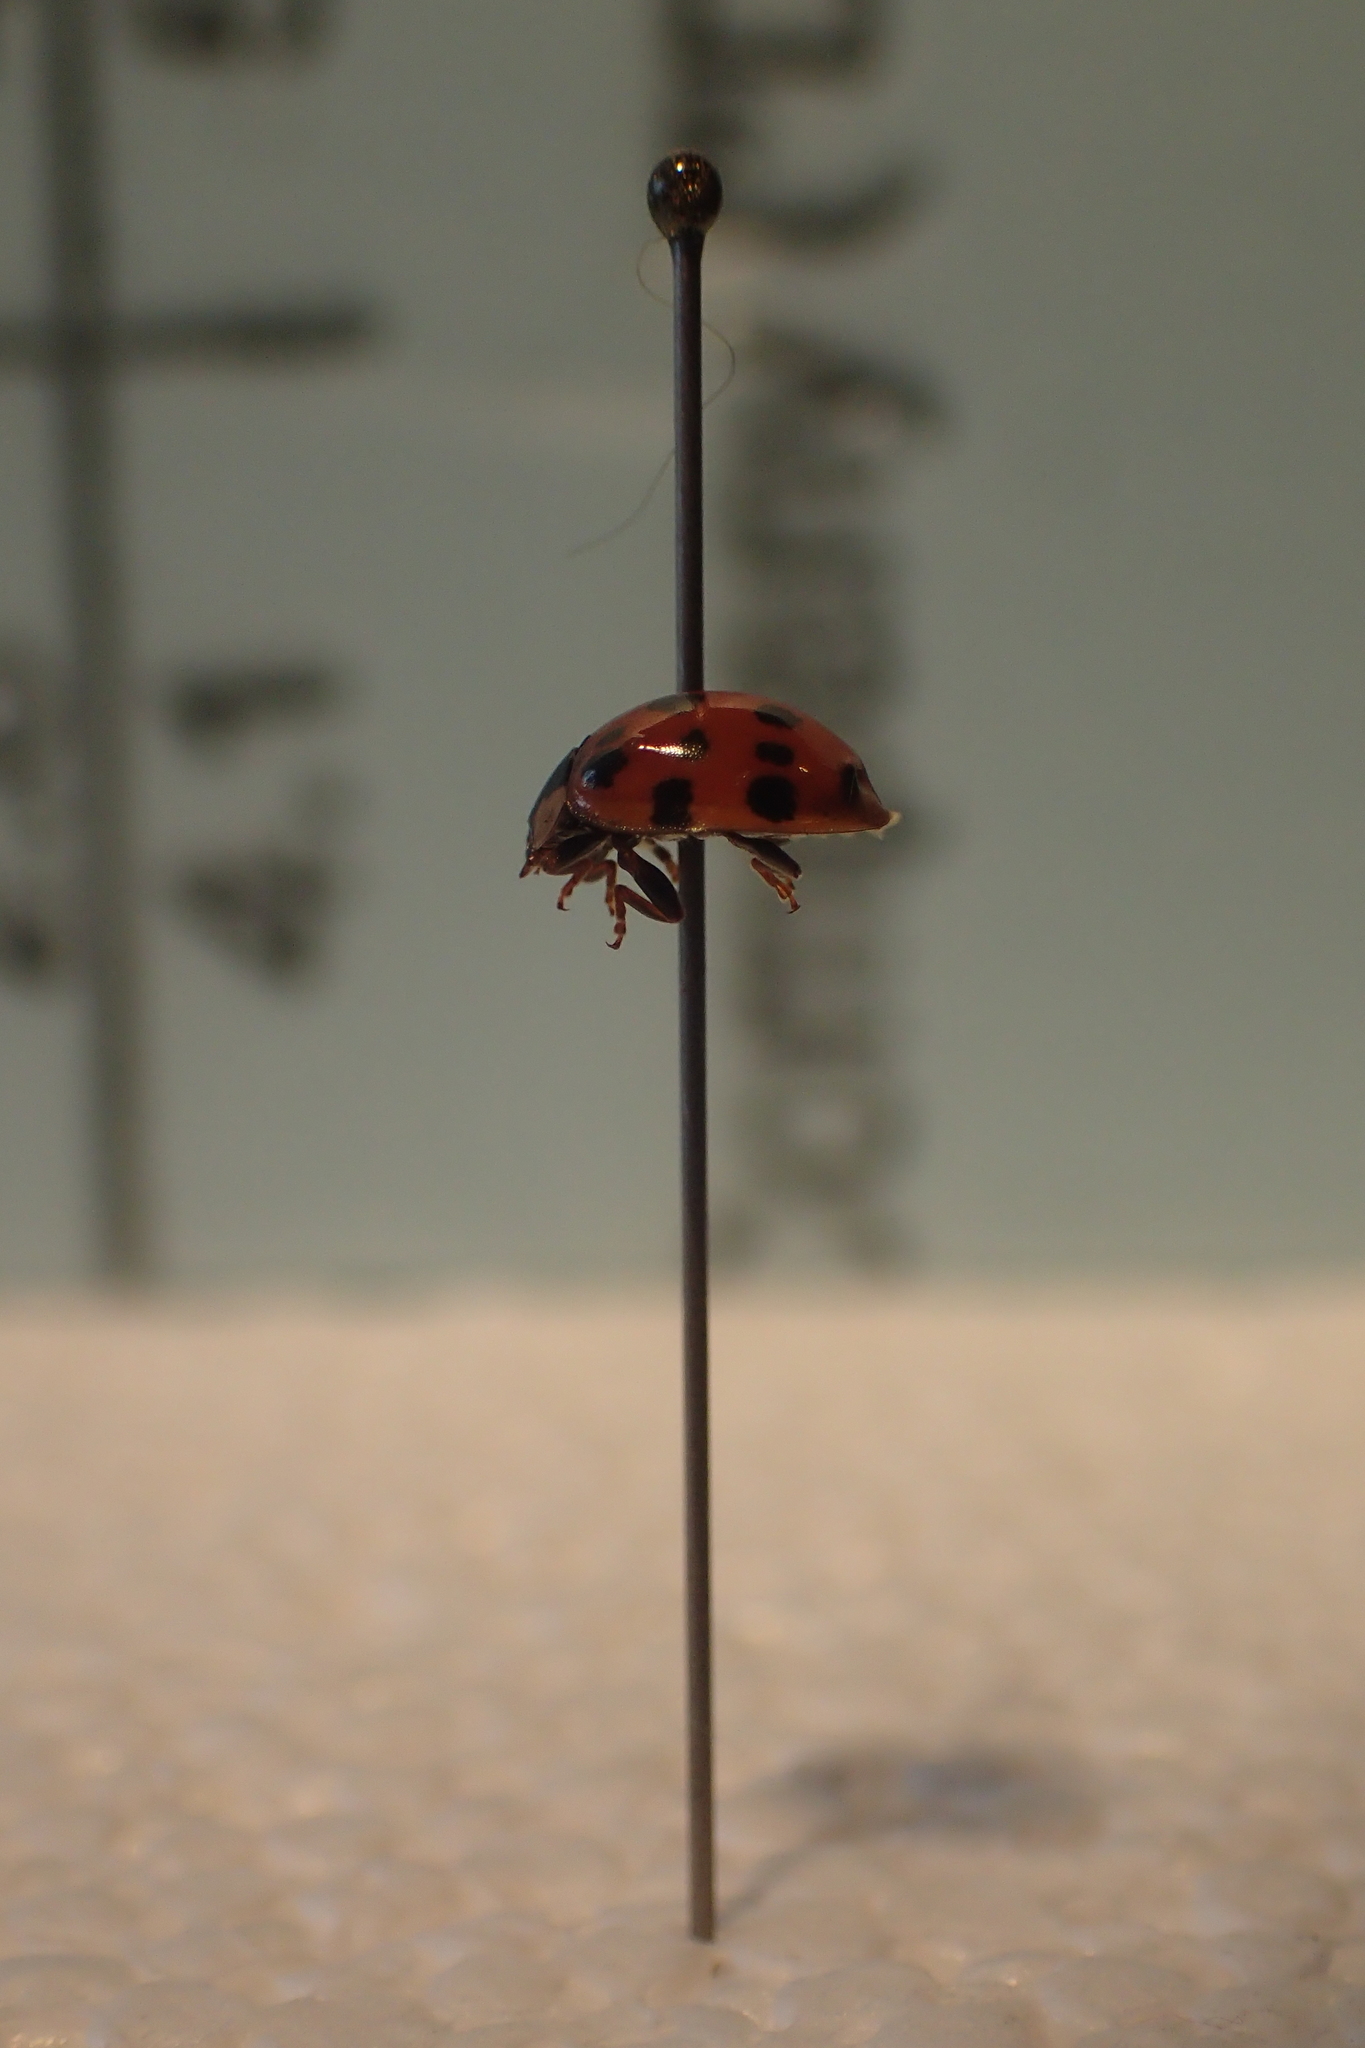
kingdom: Animalia
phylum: Arthropoda
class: Insecta
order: Coleoptera
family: Coccinellidae
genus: Harmonia
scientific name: Harmonia axyridis
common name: Harlequin ladybird
